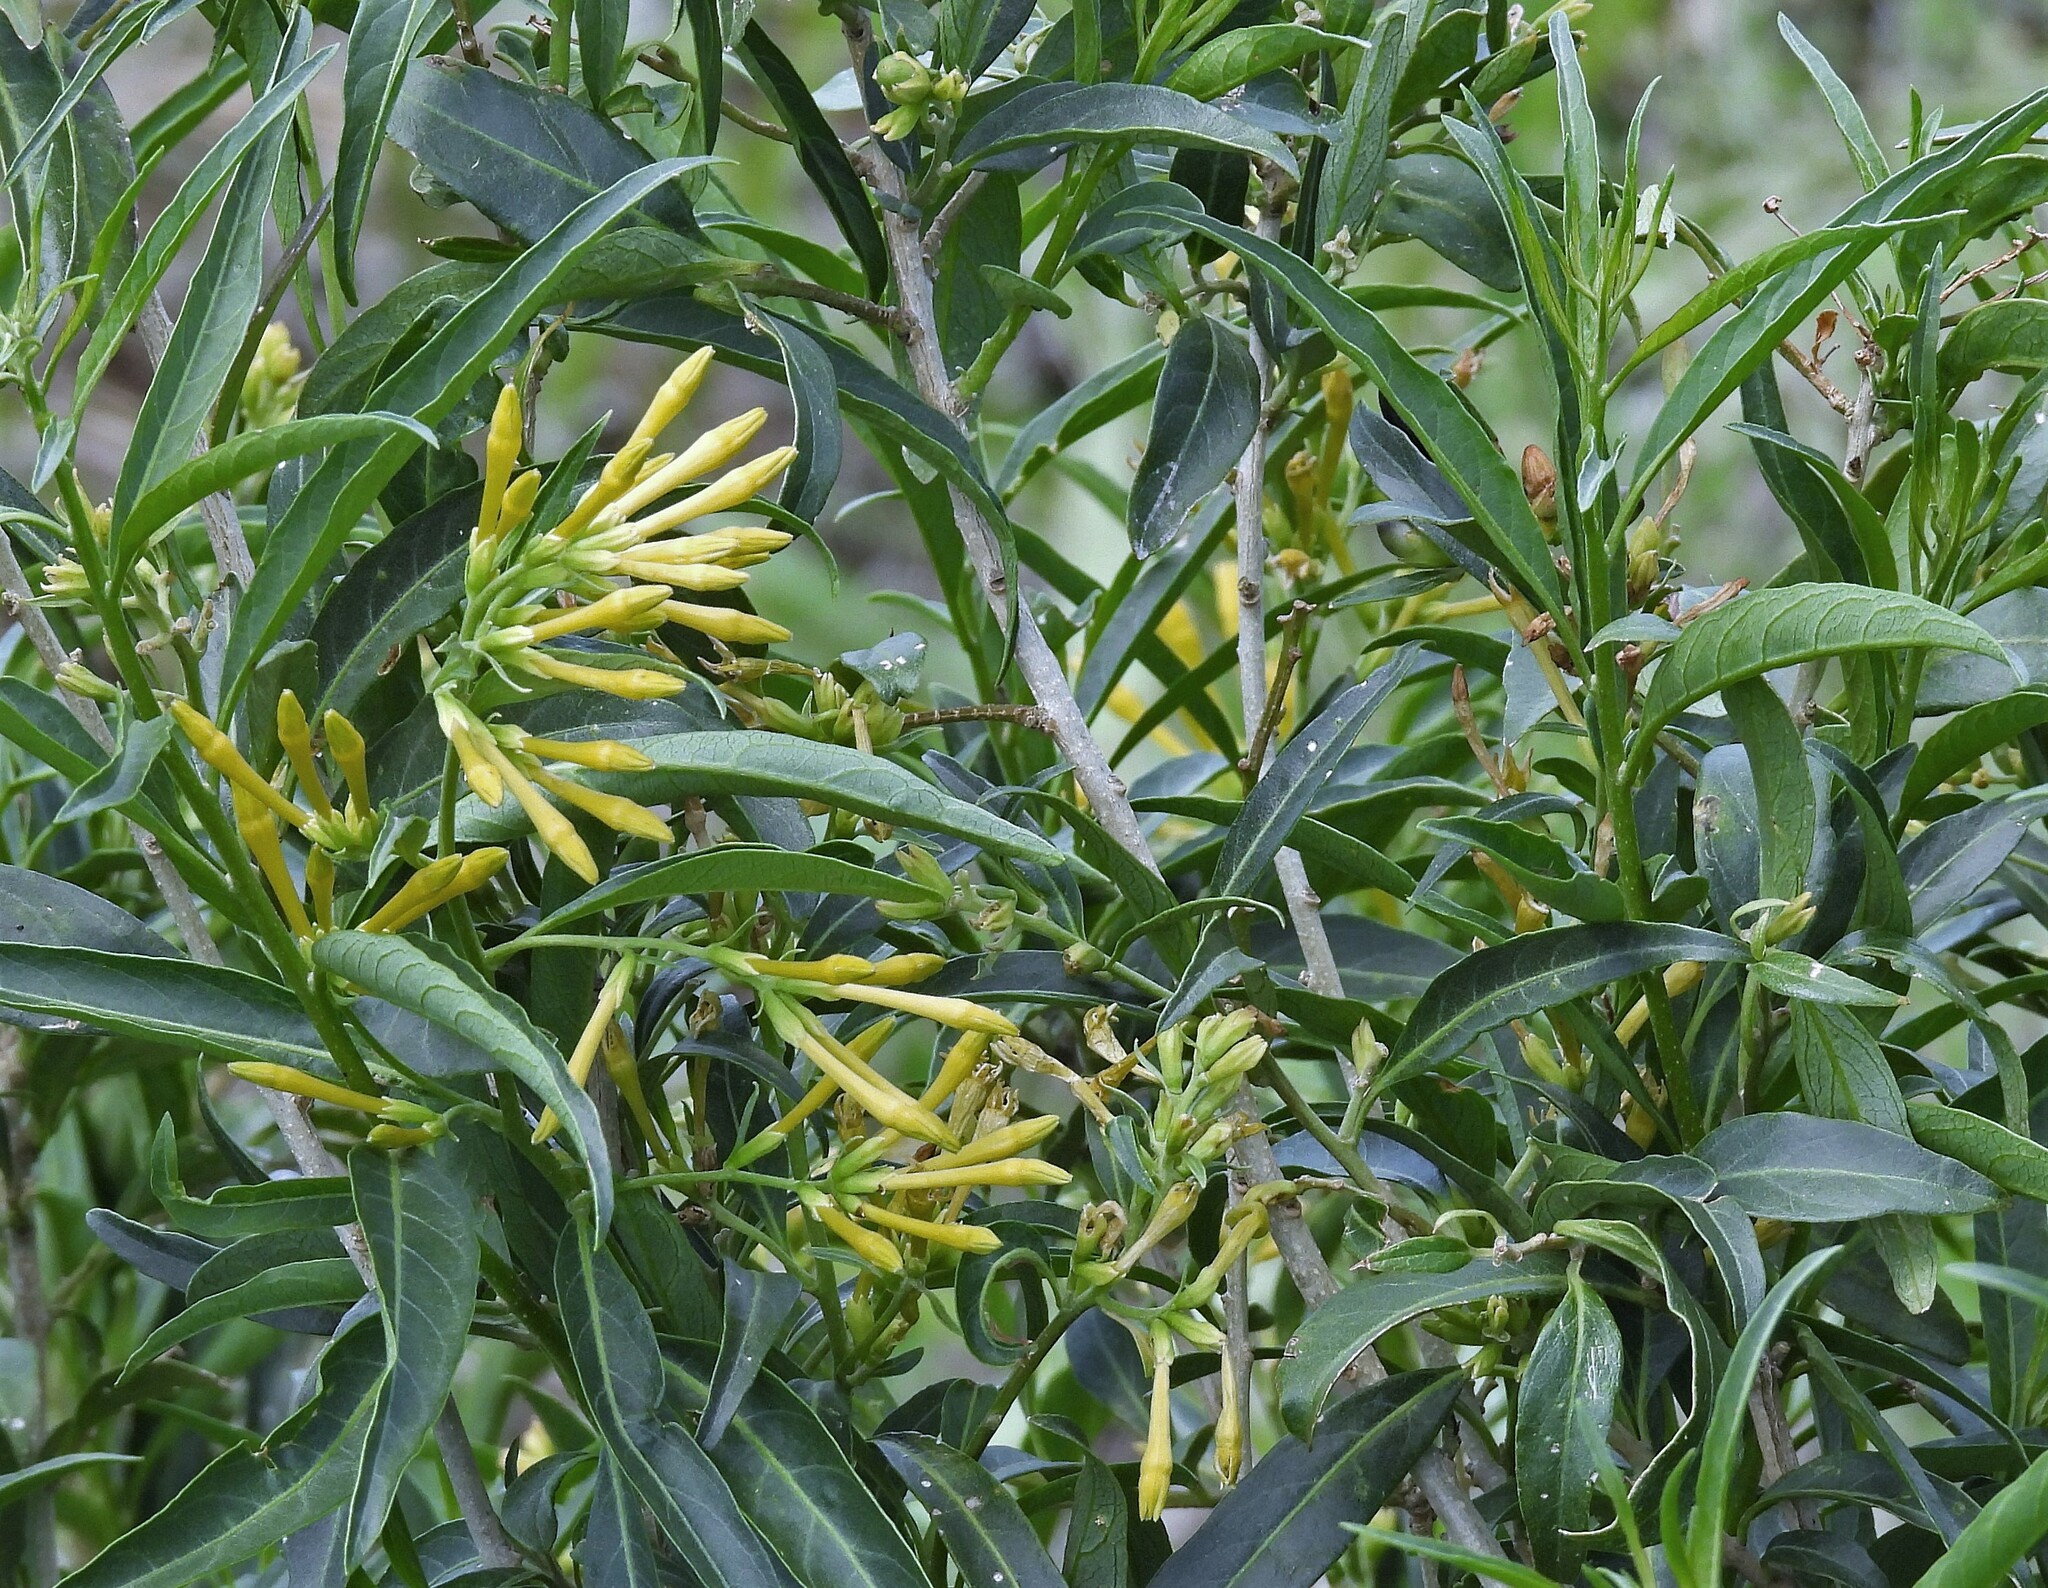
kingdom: Plantae
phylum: Tracheophyta
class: Magnoliopsida
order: Solanales
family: Solanaceae
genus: Cestrum
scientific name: Cestrum parqui
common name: Chilean cestrum
